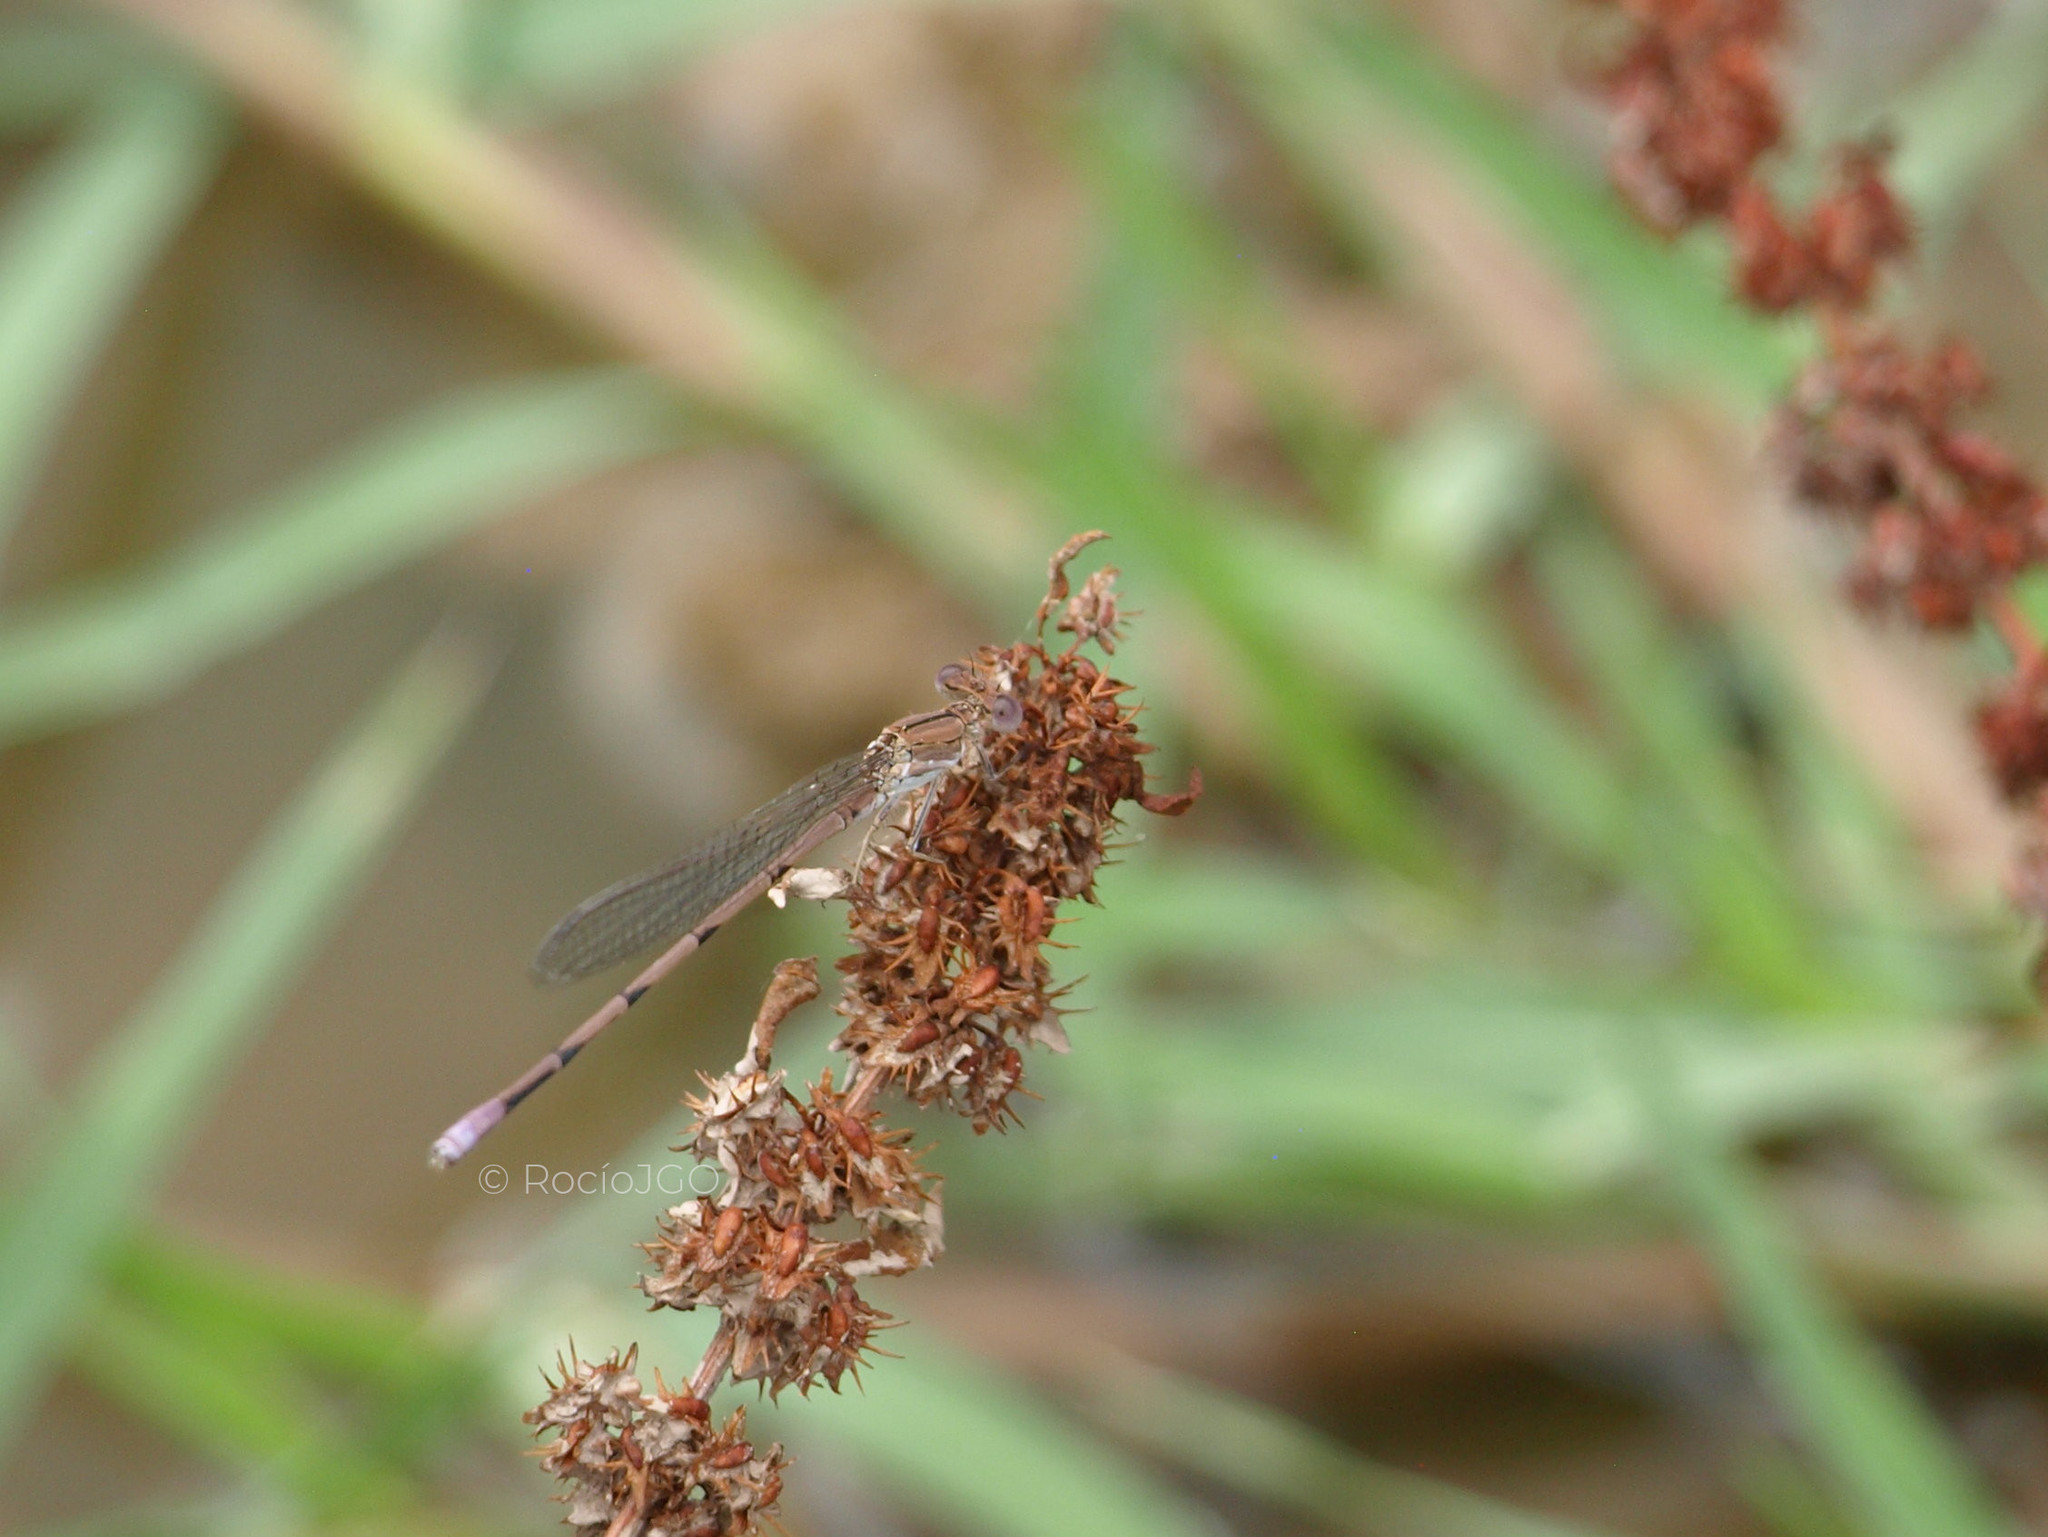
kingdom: Animalia
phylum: Arthropoda
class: Insecta
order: Odonata
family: Coenagrionidae
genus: Argia
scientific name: Argia pallens
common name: Amethyst dancer
